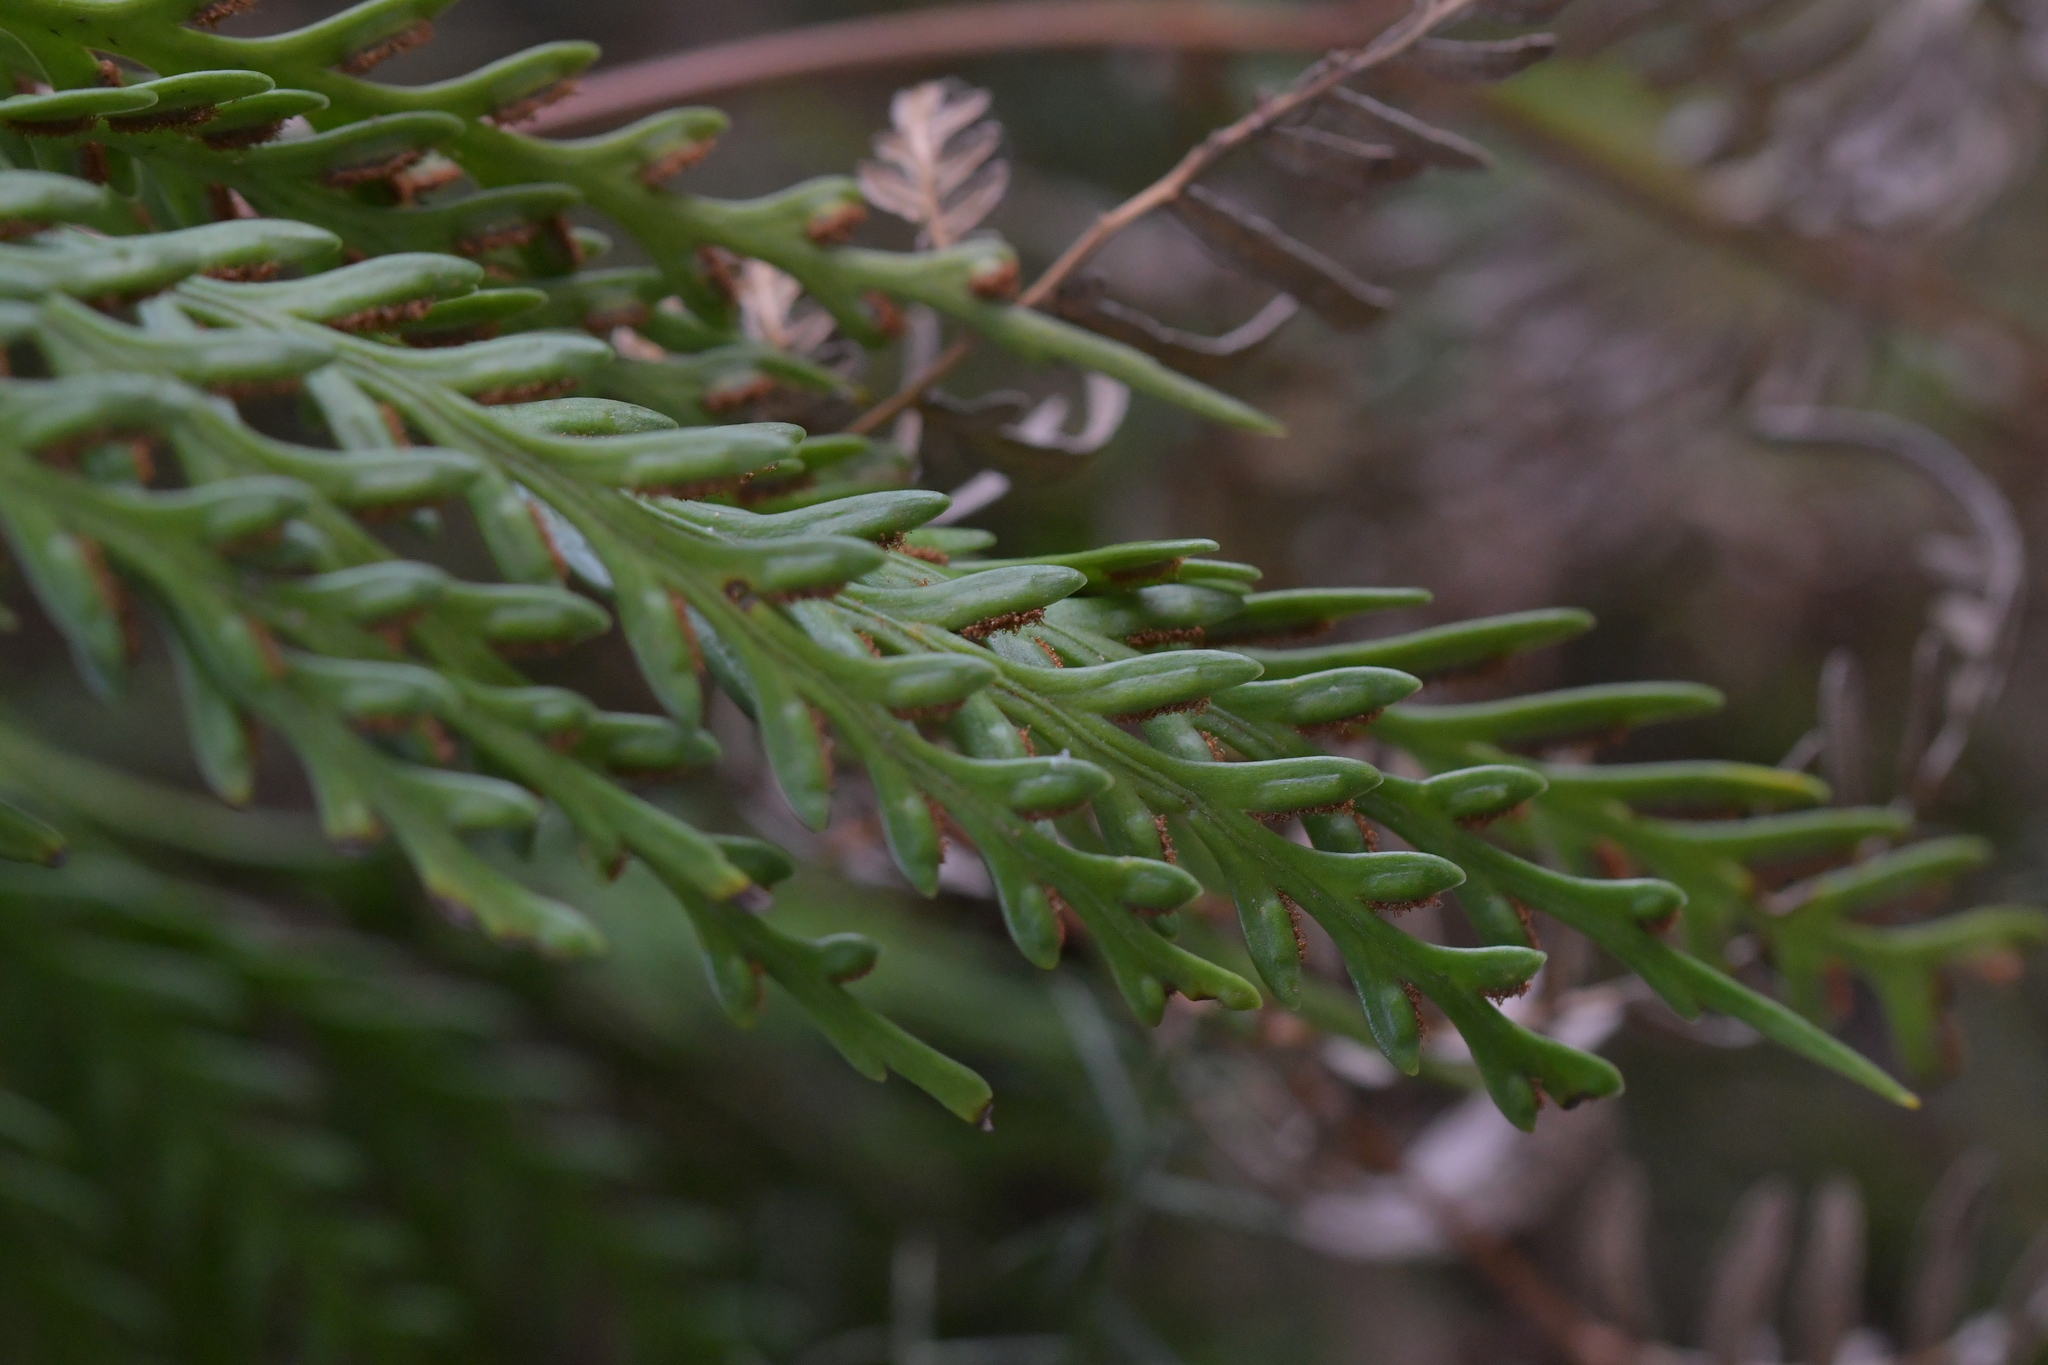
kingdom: Plantae
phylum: Tracheophyta
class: Polypodiopsida
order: Polypodiales
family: Aspleniaceae
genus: Asplenium
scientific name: Asplenium flaccidum
